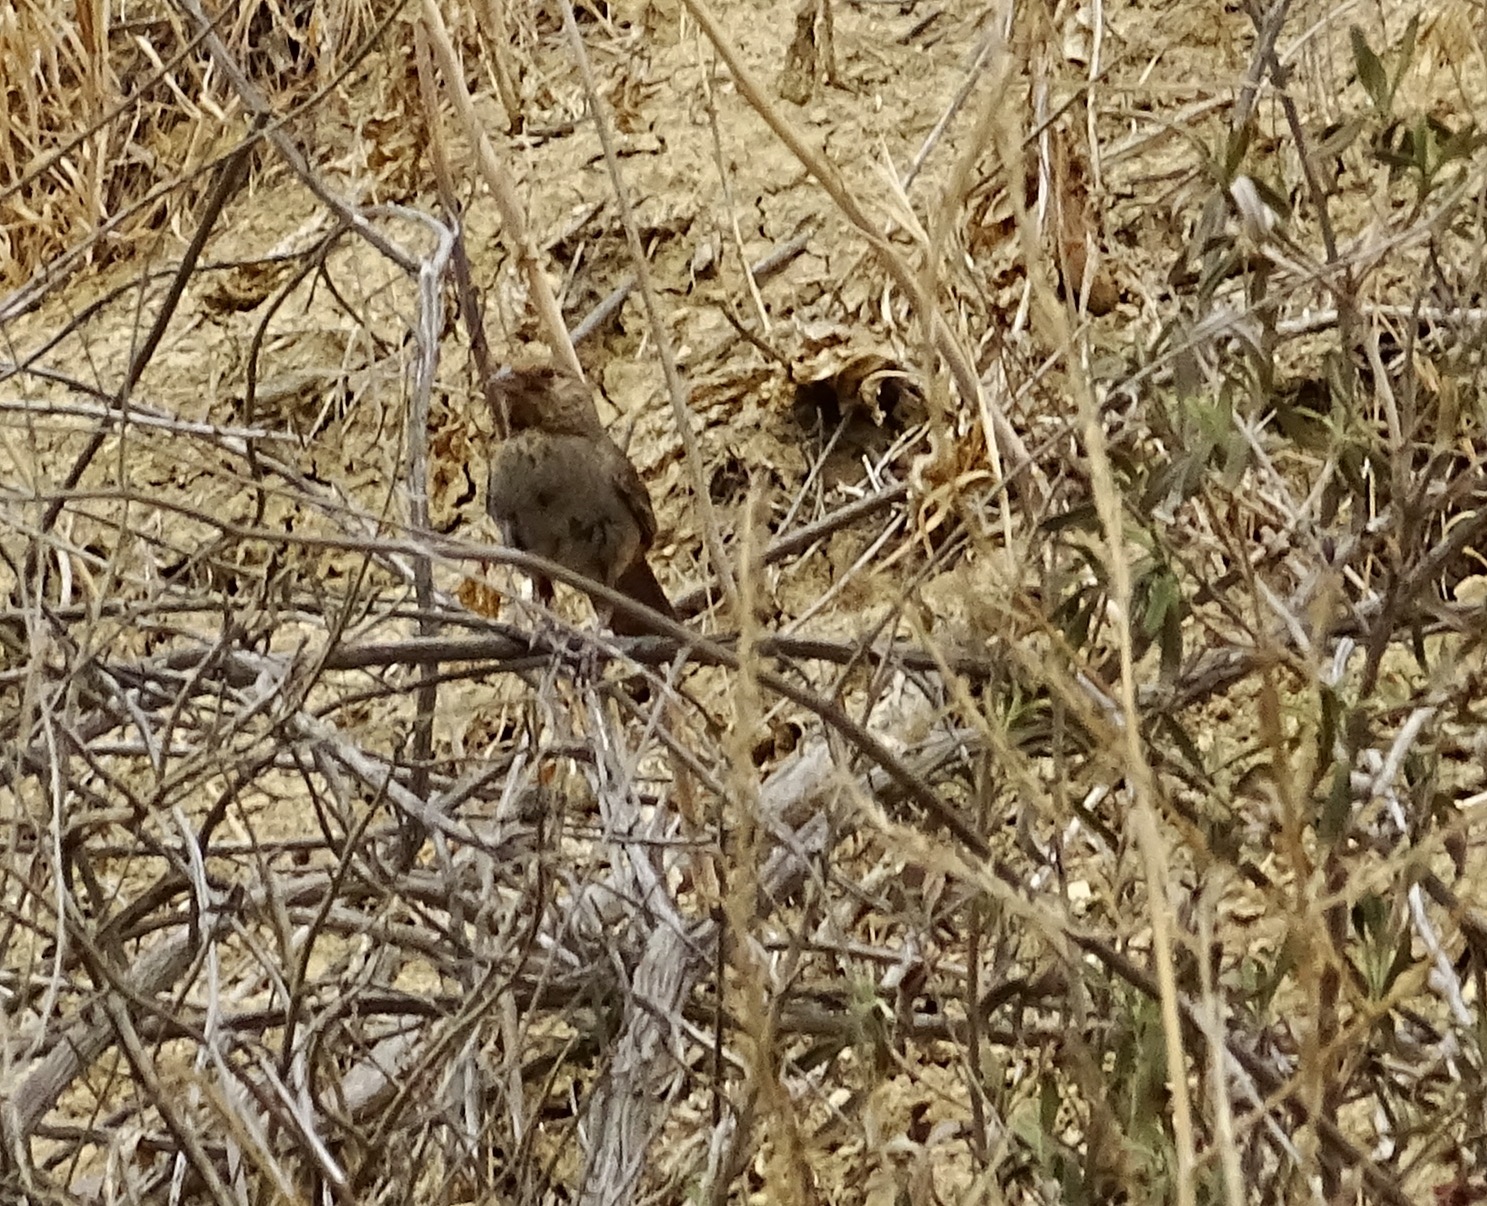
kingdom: Animalia
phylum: Chordata
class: Aves
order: Passeriformes
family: Passerellidae
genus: Melozone
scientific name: Melozone crissalis
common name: California towhee
